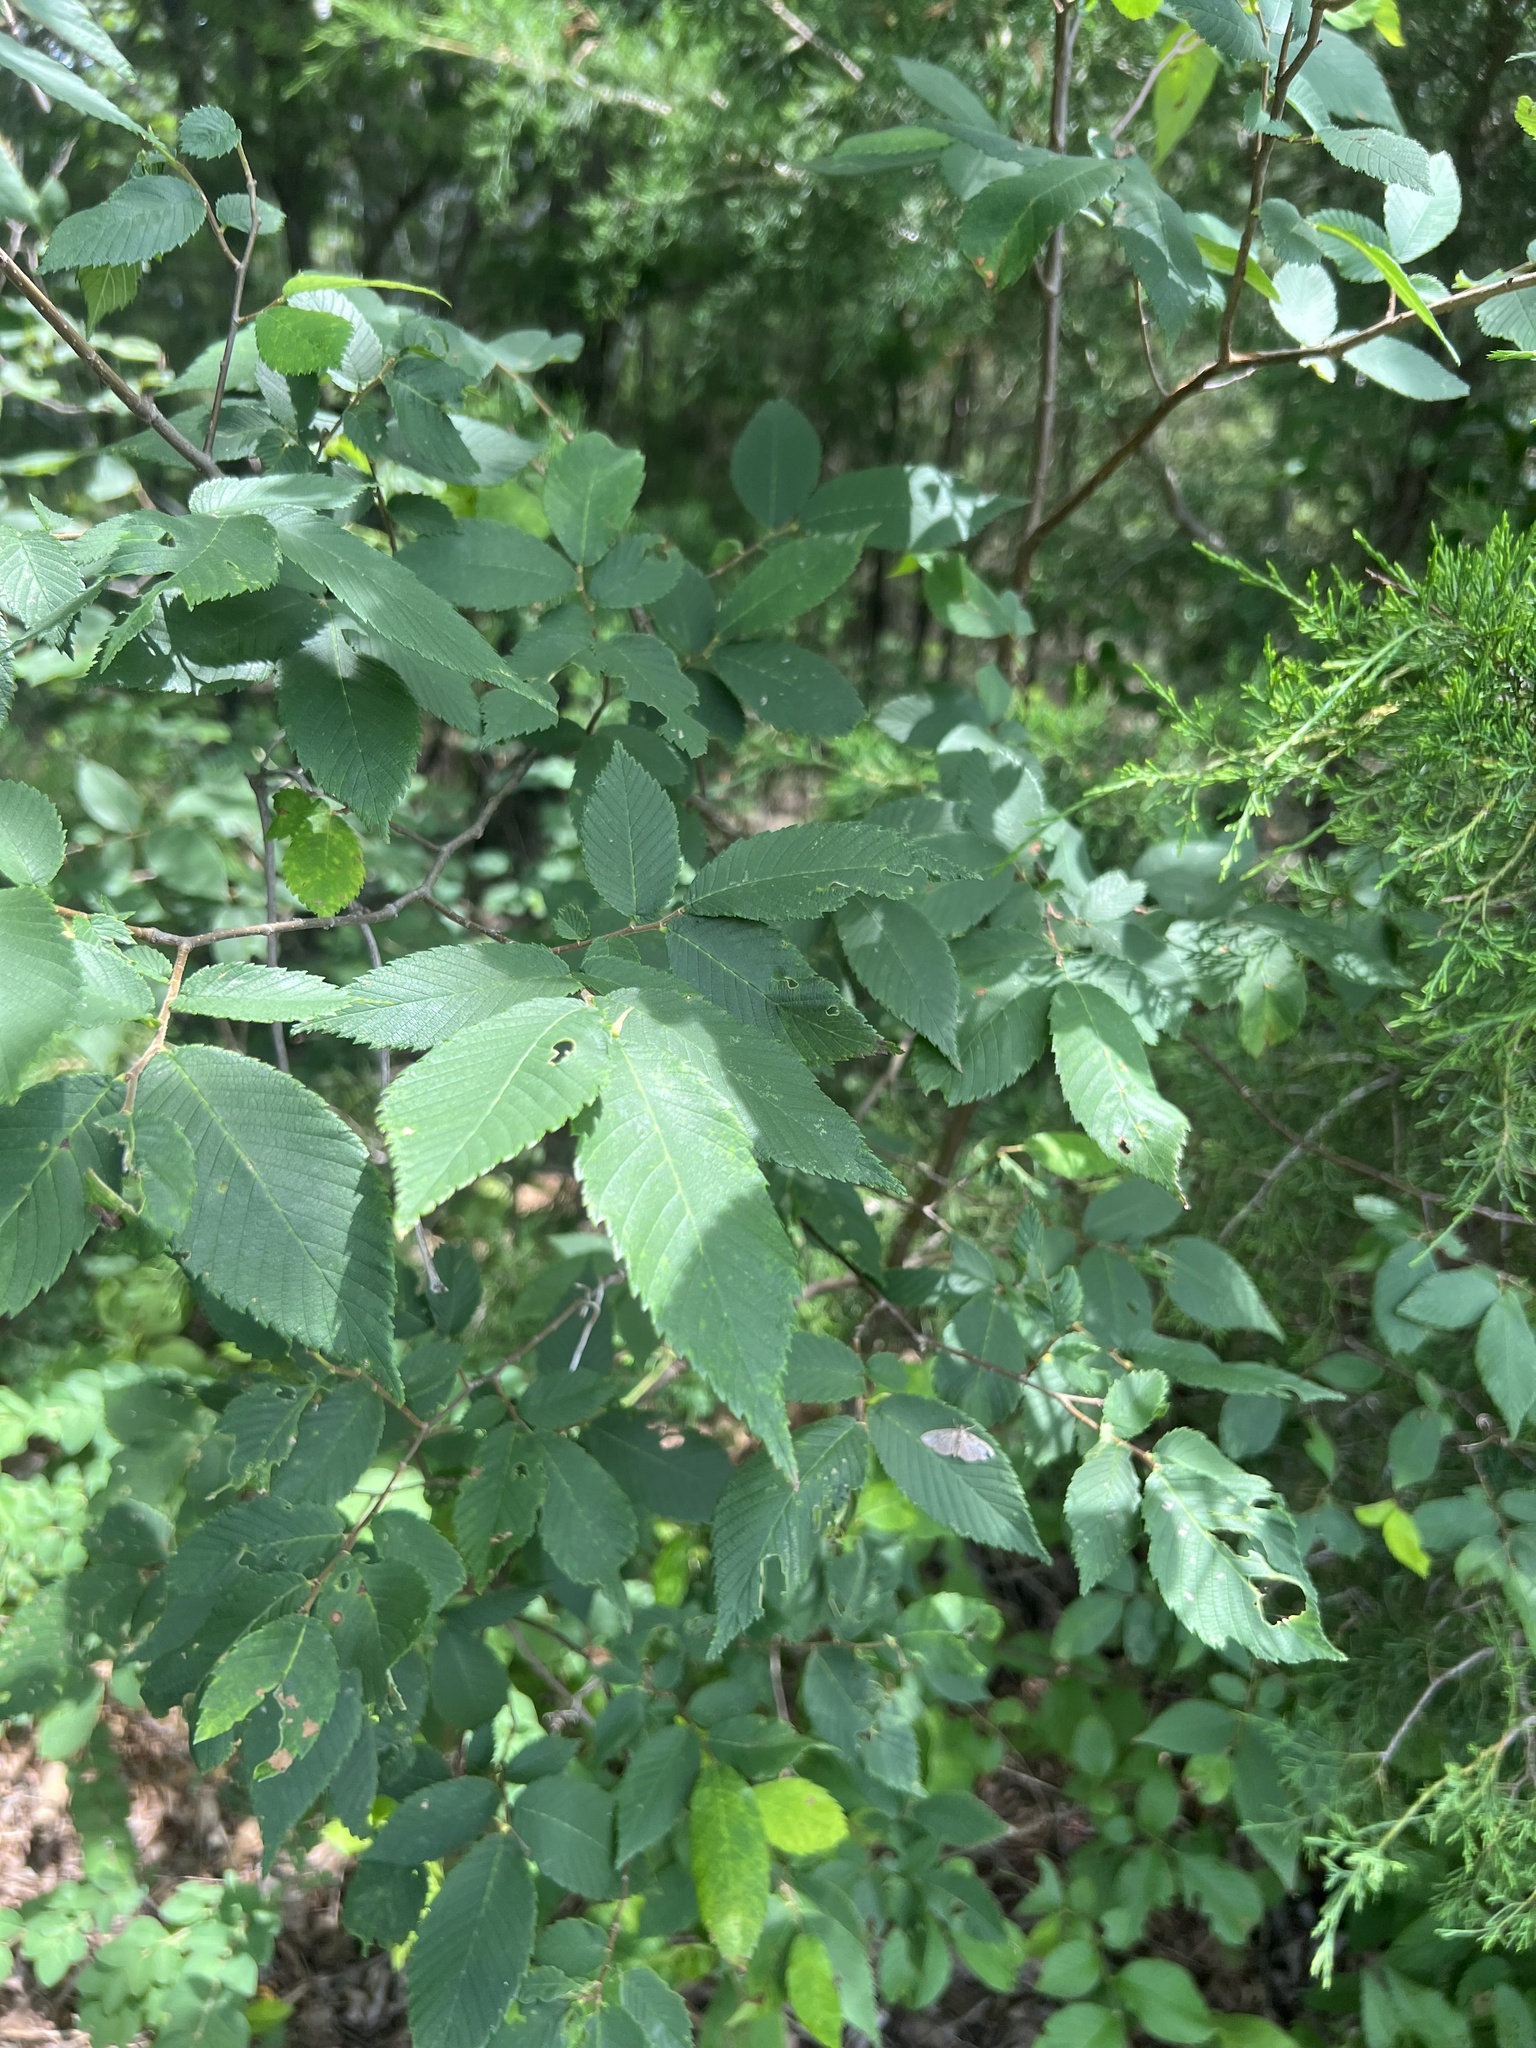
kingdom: Plantae
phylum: Tracheophyta
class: Magnoliopsida
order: Rosales
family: Ulmaceae
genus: Ulmus
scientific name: Ulmus alata
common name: Winged elm
